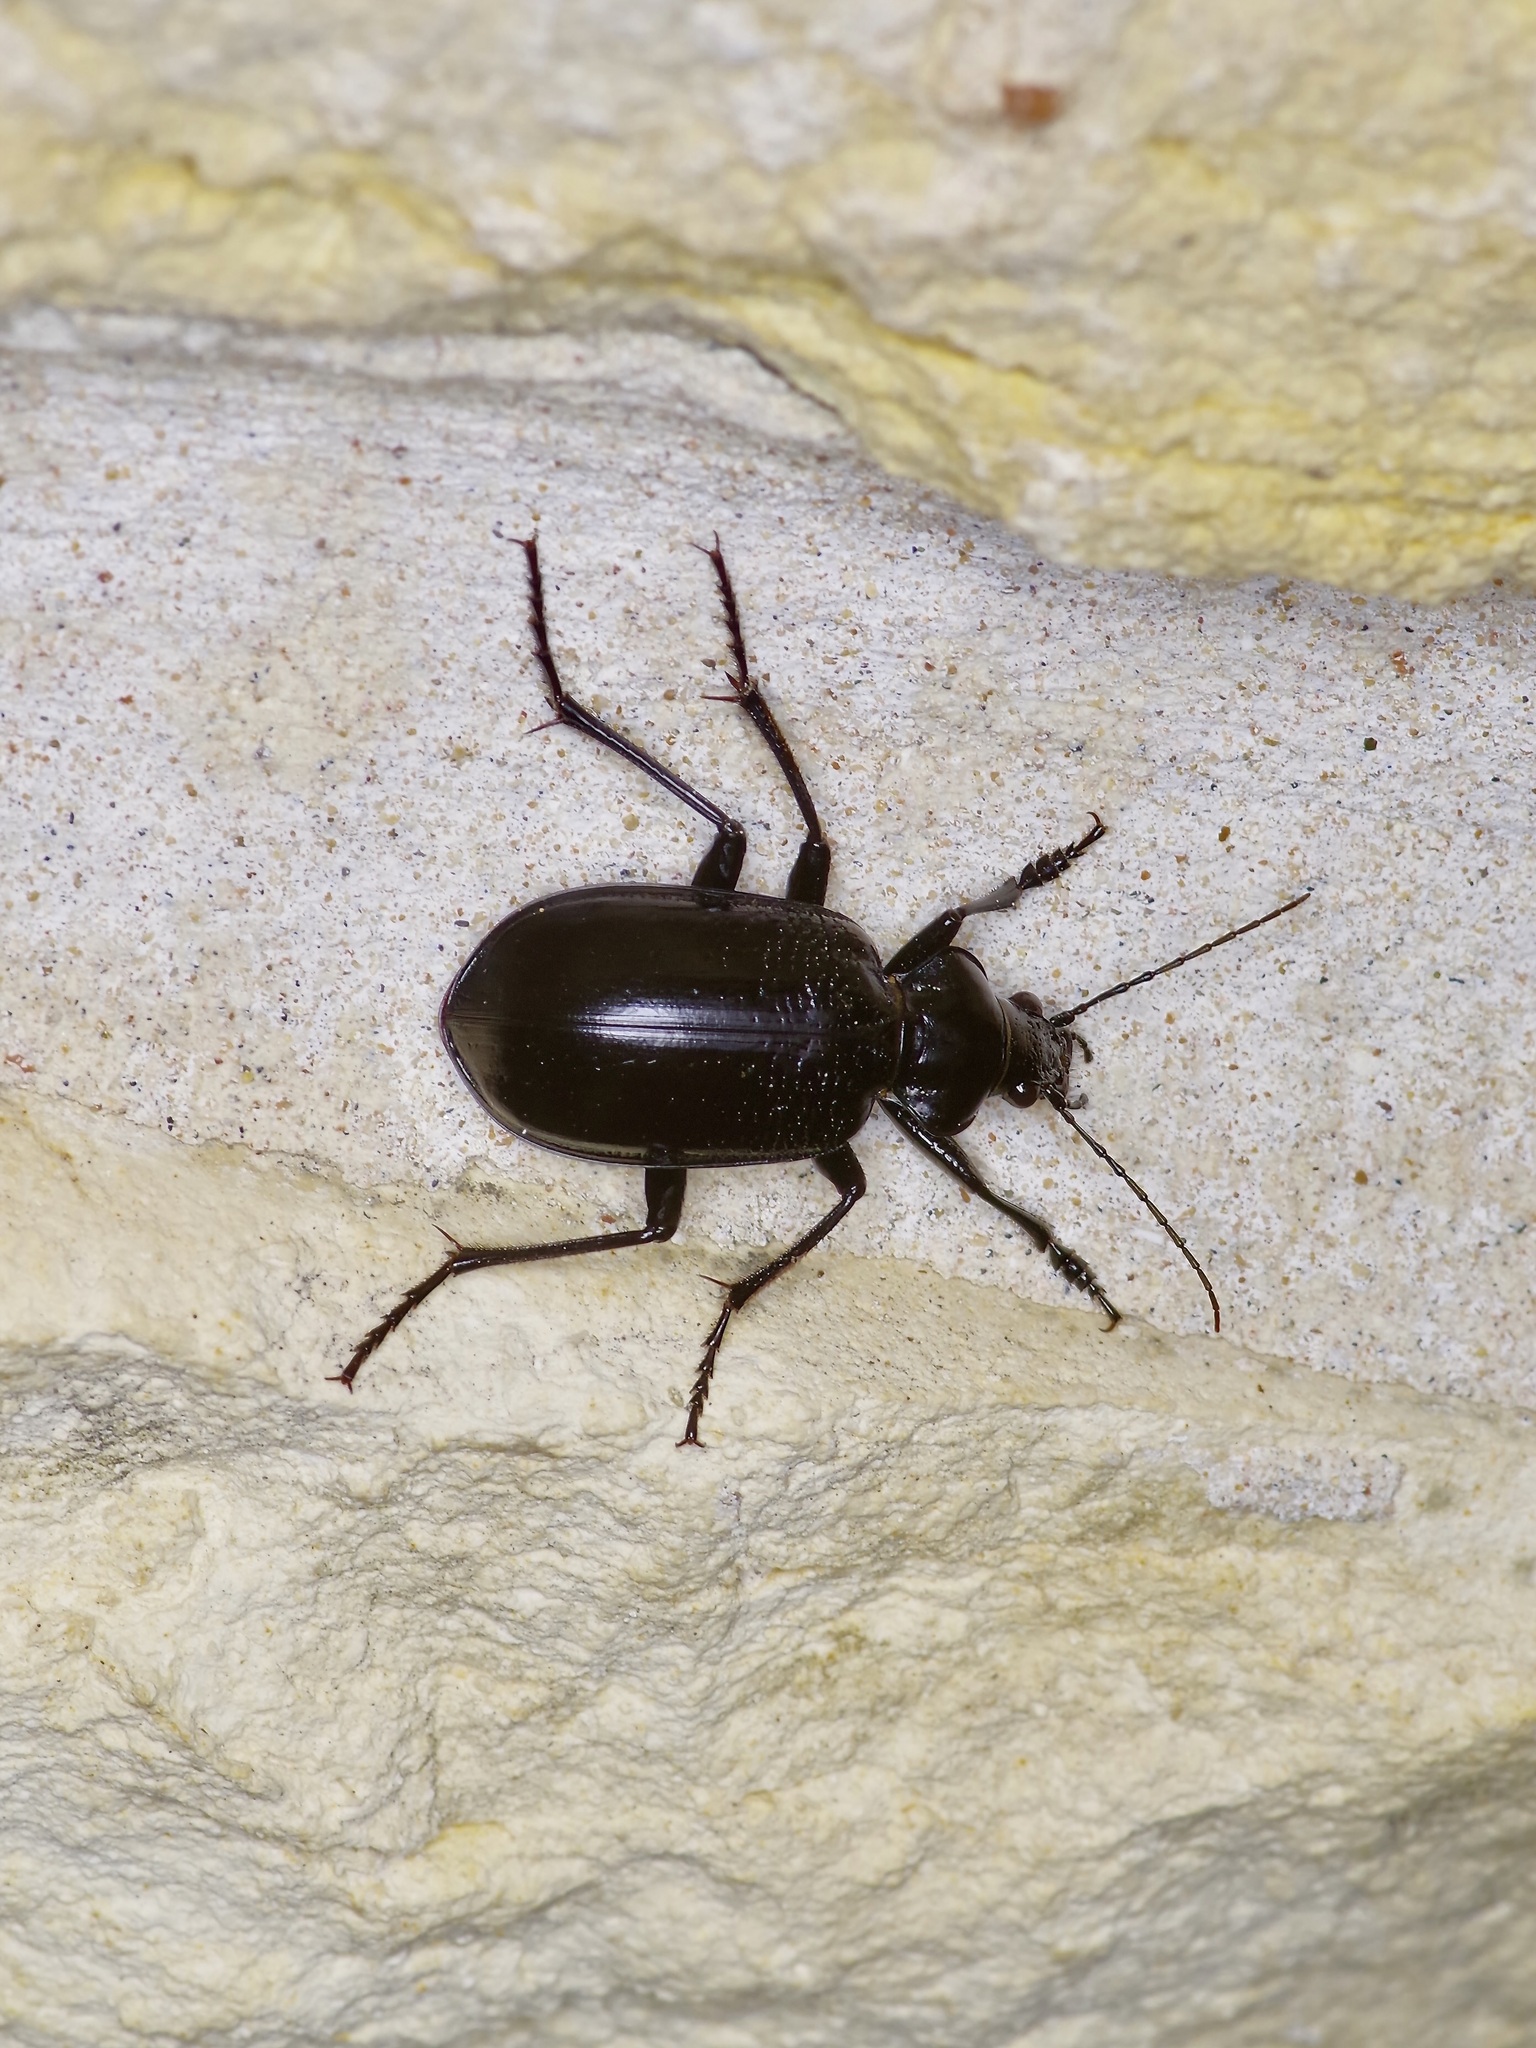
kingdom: Animalia
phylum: Arthropoda
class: Insecta
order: Coleoptera
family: Carabidae
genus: Calosoma
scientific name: Calosoma marginale
